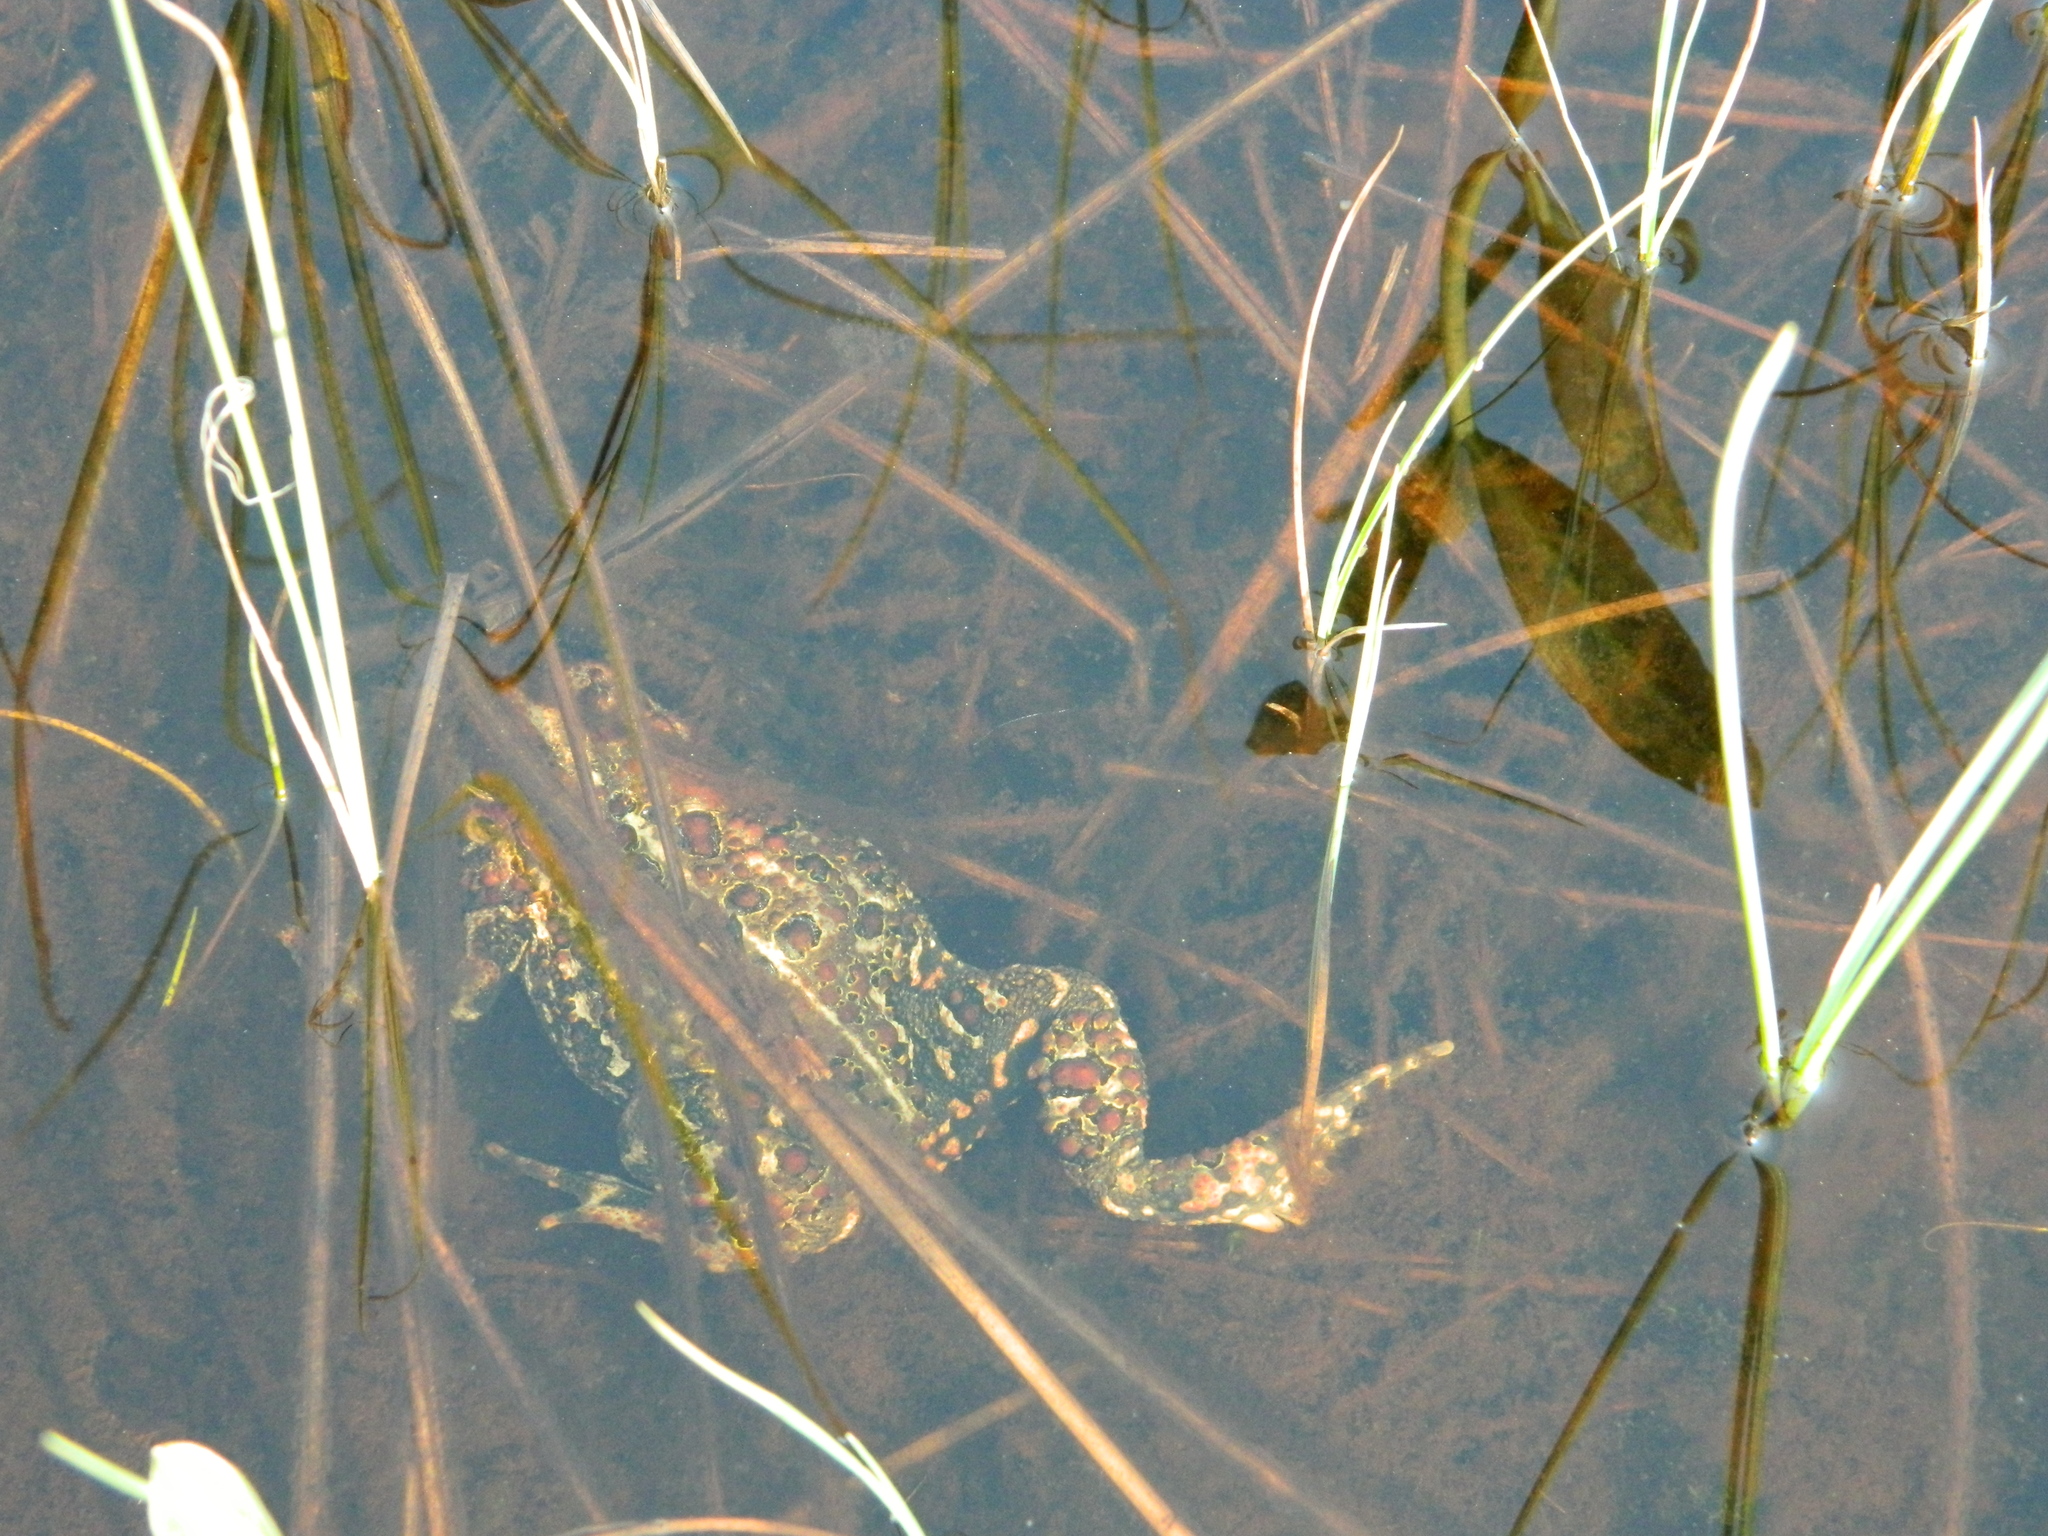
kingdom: Animalia
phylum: Chordata
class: Amphibia
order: Anura
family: Bufonidae
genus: Anaxyrus
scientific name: Anaxyrus americanus
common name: American toad
